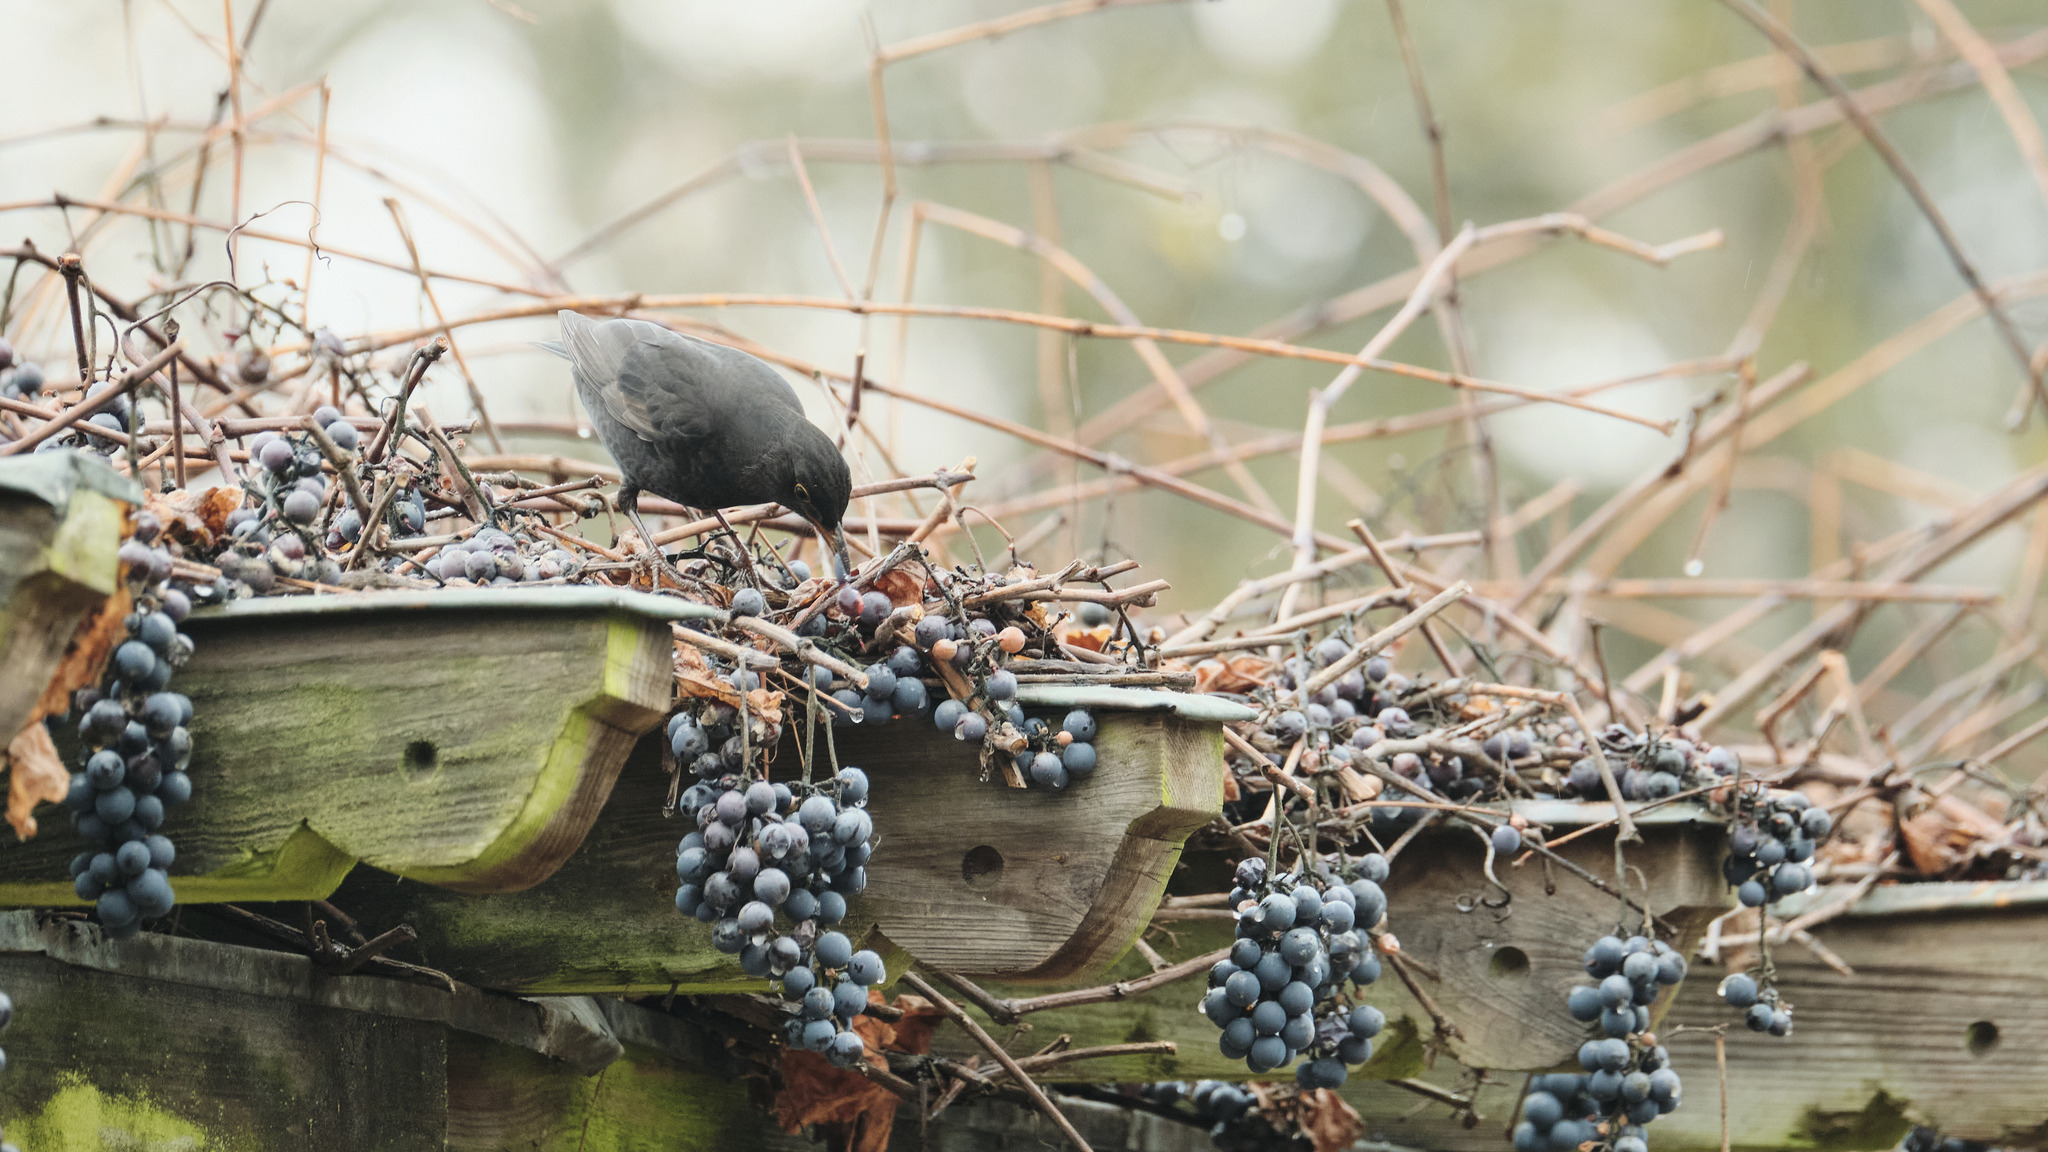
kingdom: Animalia
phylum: Chordata
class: Aves
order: Passeriformes
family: Turdidae
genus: Turdus
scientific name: Turdus merula
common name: Common blackbird
